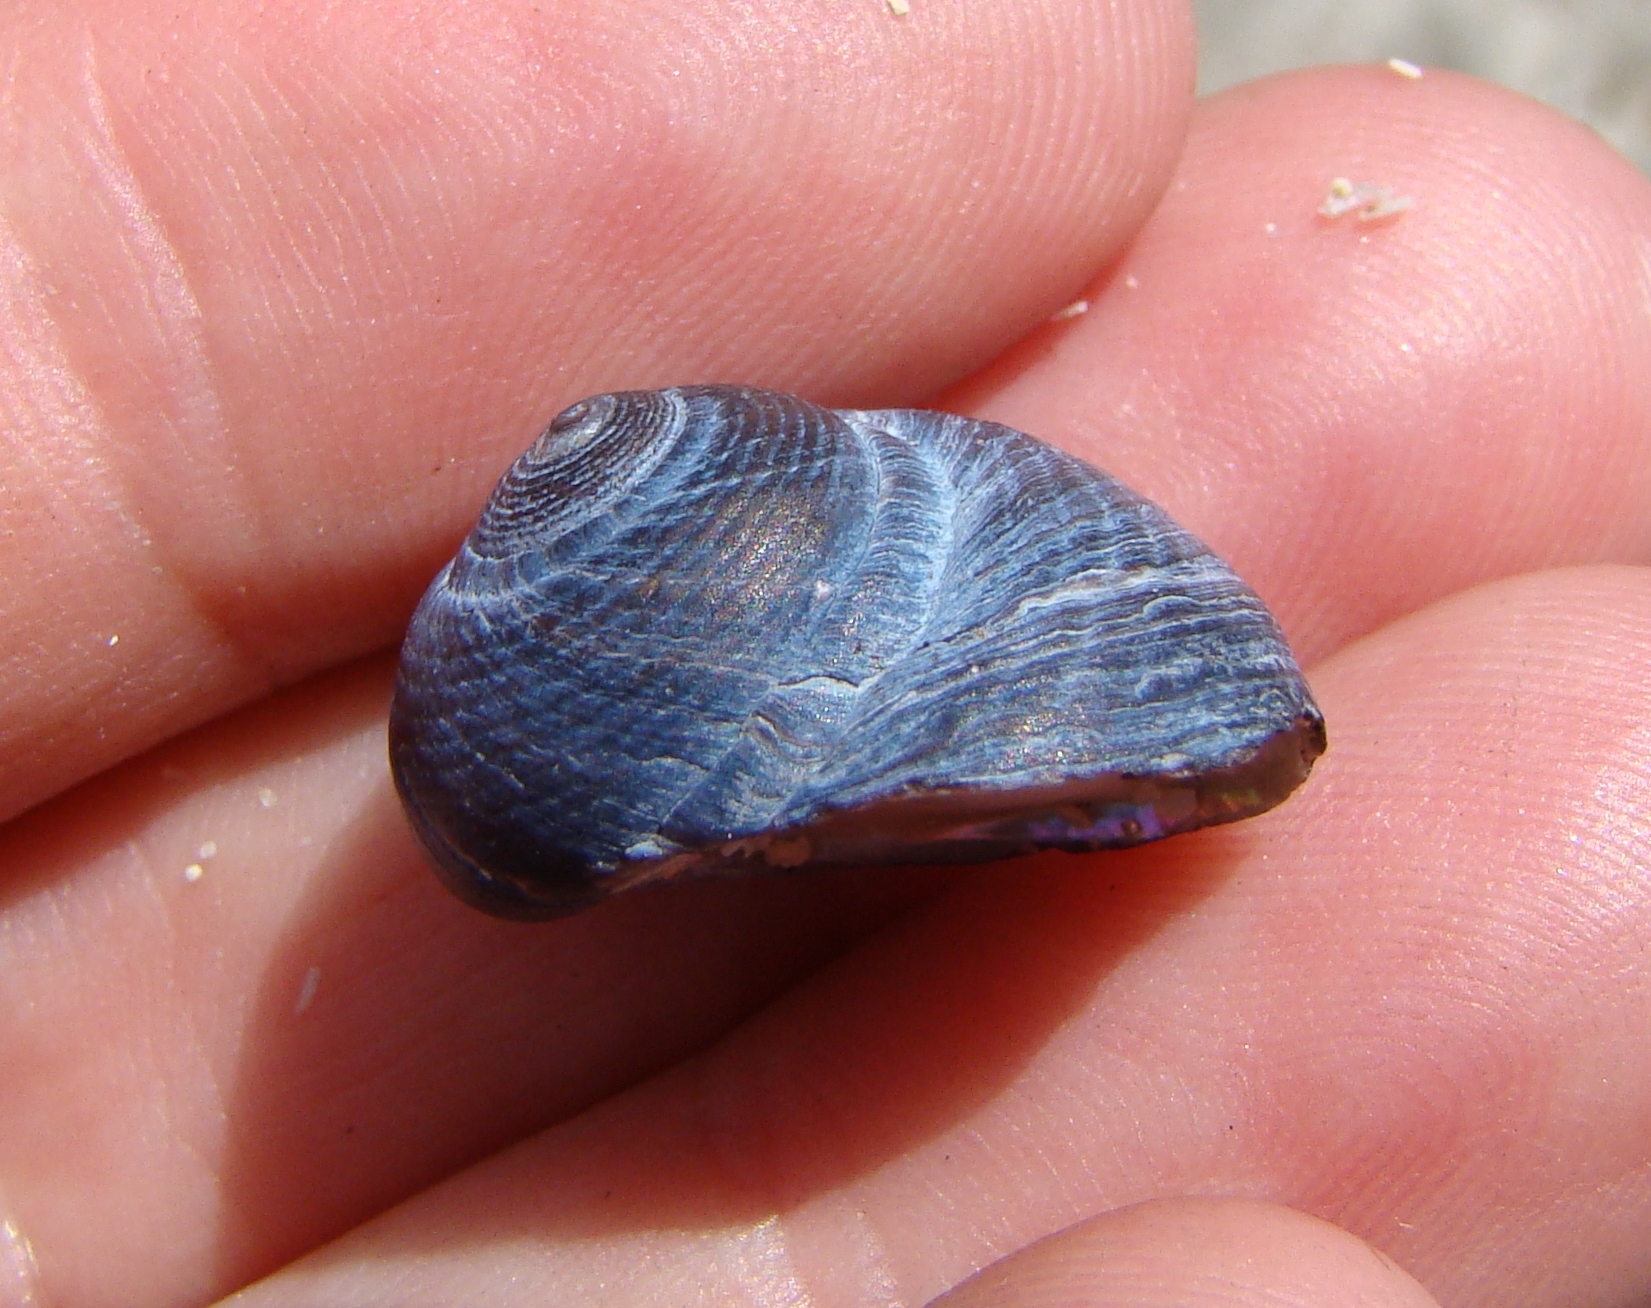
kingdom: Animalia
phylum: Mollusca
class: Gastropoda
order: Trochida
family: Trochidae
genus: Diloma
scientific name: Diloma nigerrimum
